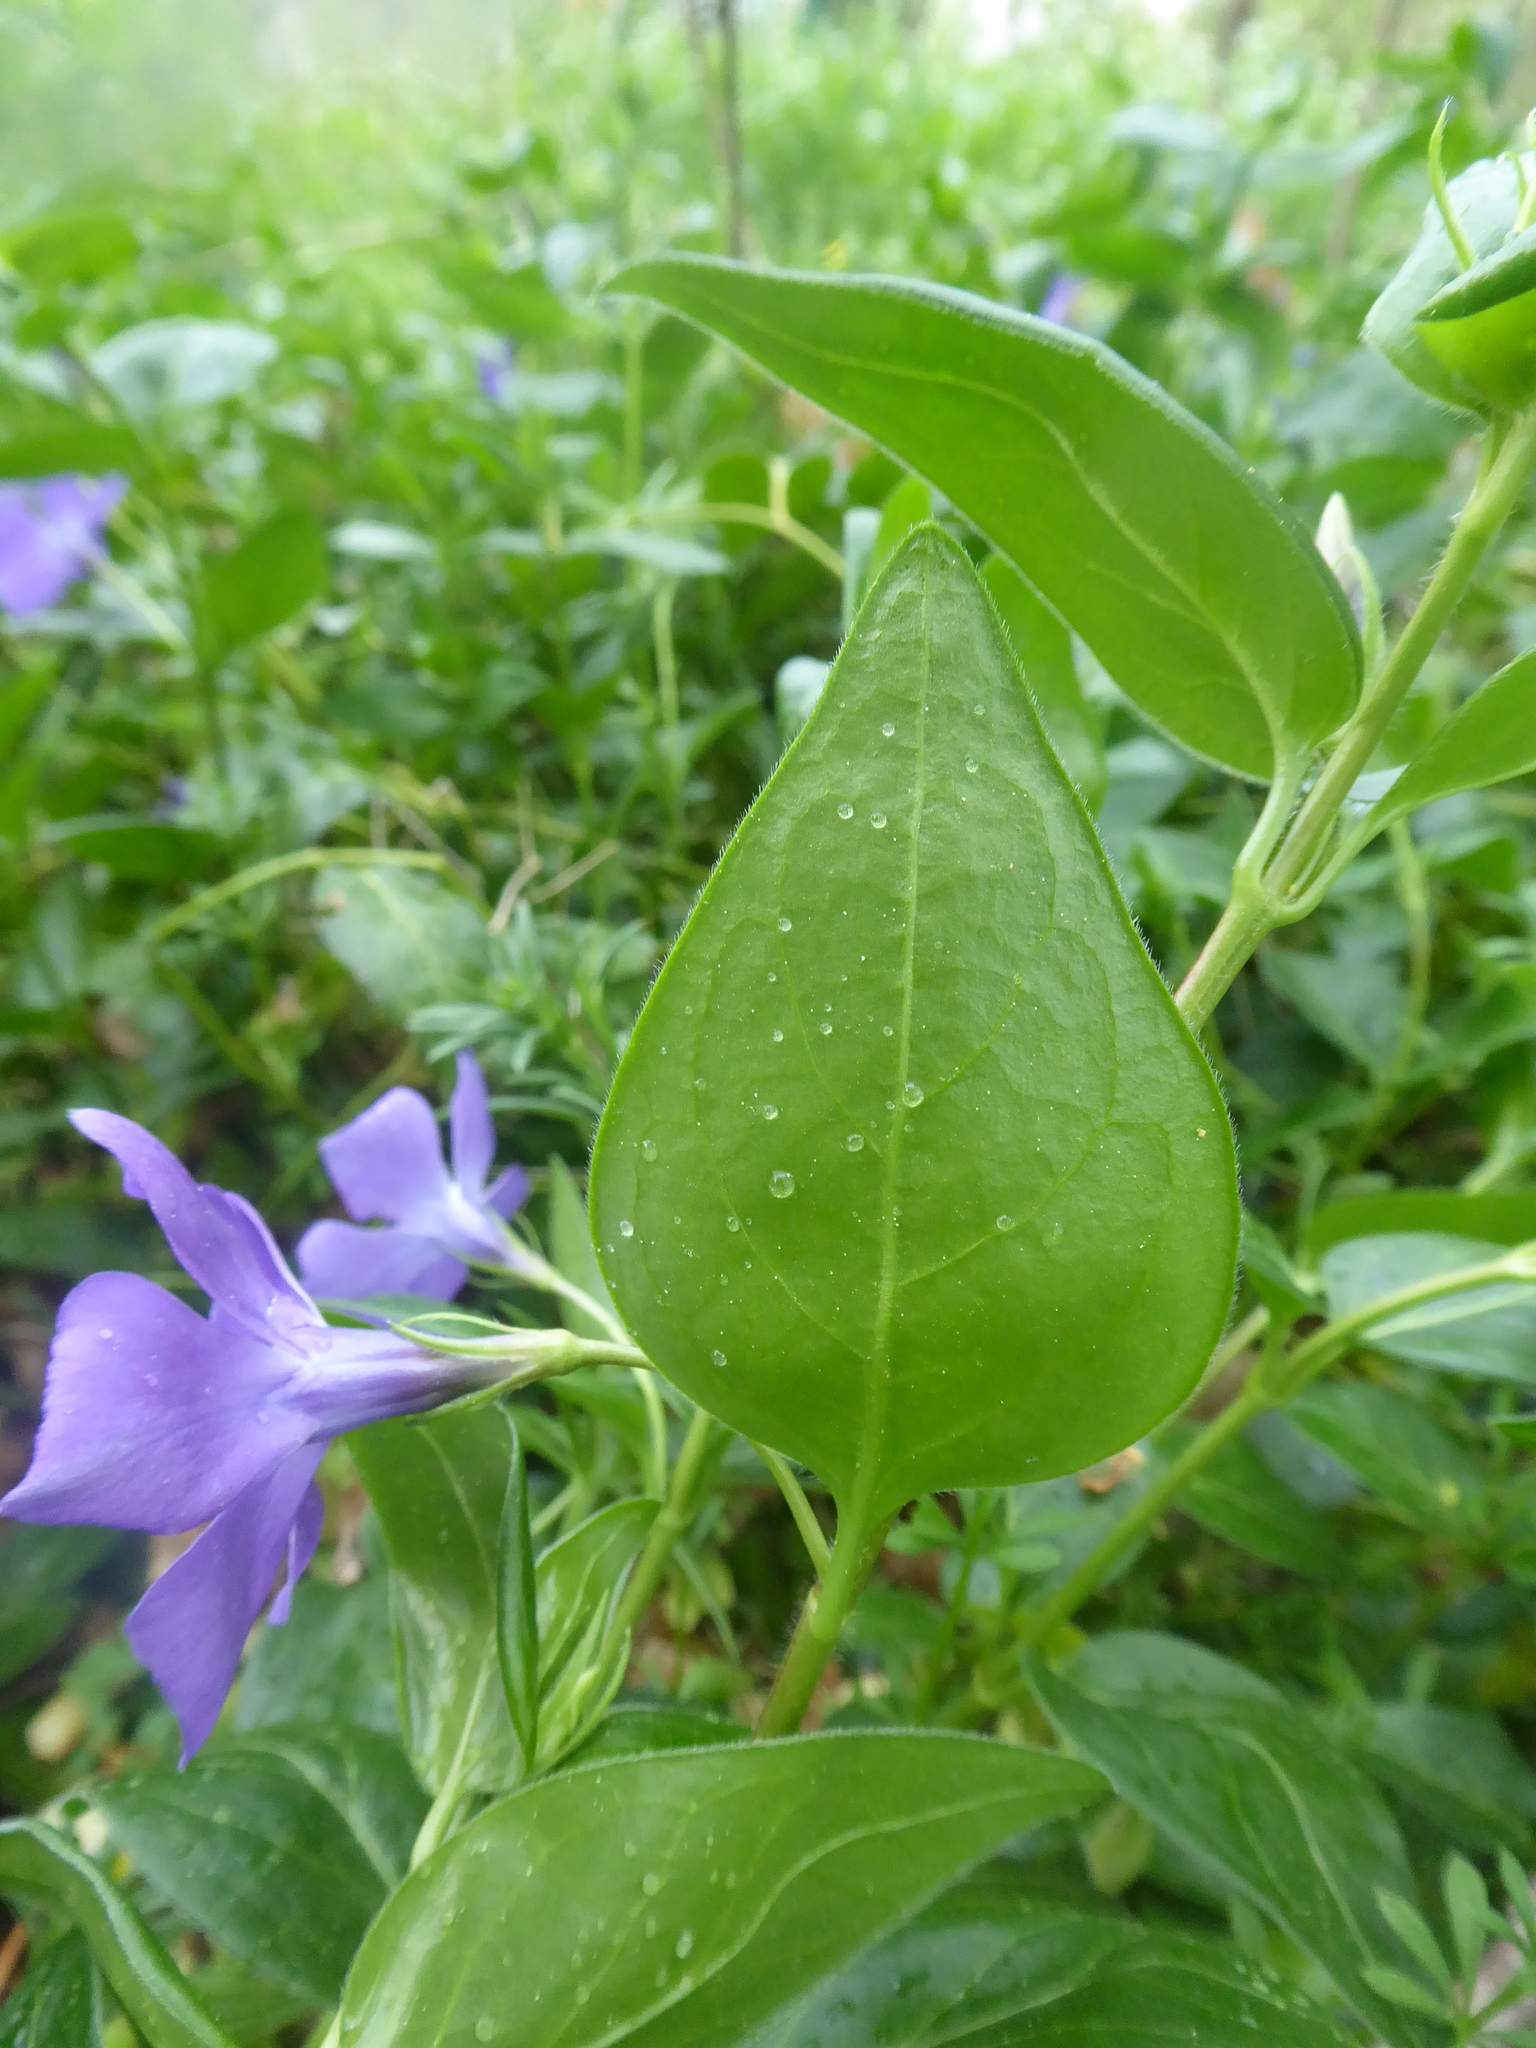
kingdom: Plantae
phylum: Tracheophyta
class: Magnoliopsida
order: Gentianales
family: Apocynaceae
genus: Vinca
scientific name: Vinca major
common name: Greater periwinkle
